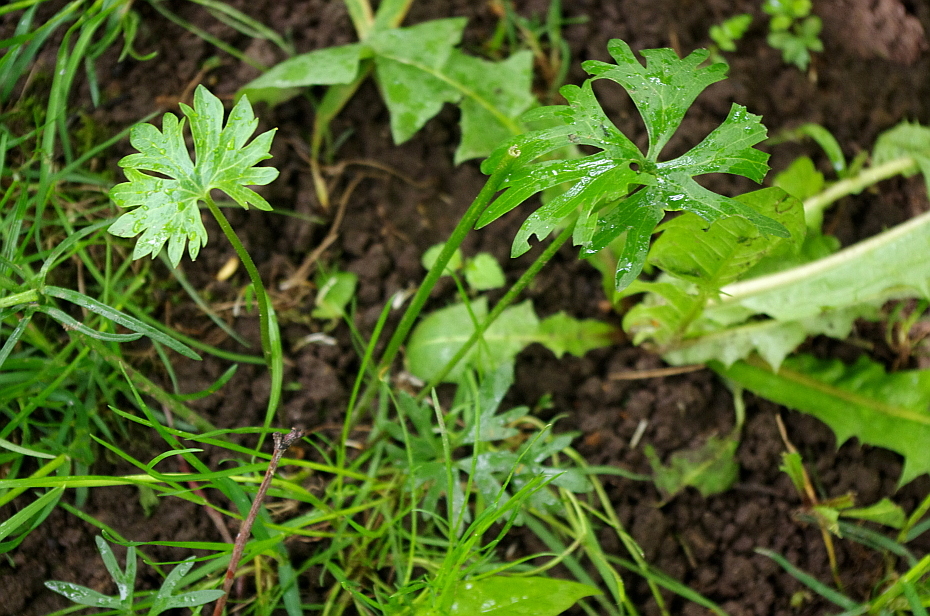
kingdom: Plantae
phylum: Tracheophyta
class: Magnoliopsida
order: Ranunculales
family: Ranunculaceae
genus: Ranunculus
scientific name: Ranunculus auricomus
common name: Goldilocks buttercup
